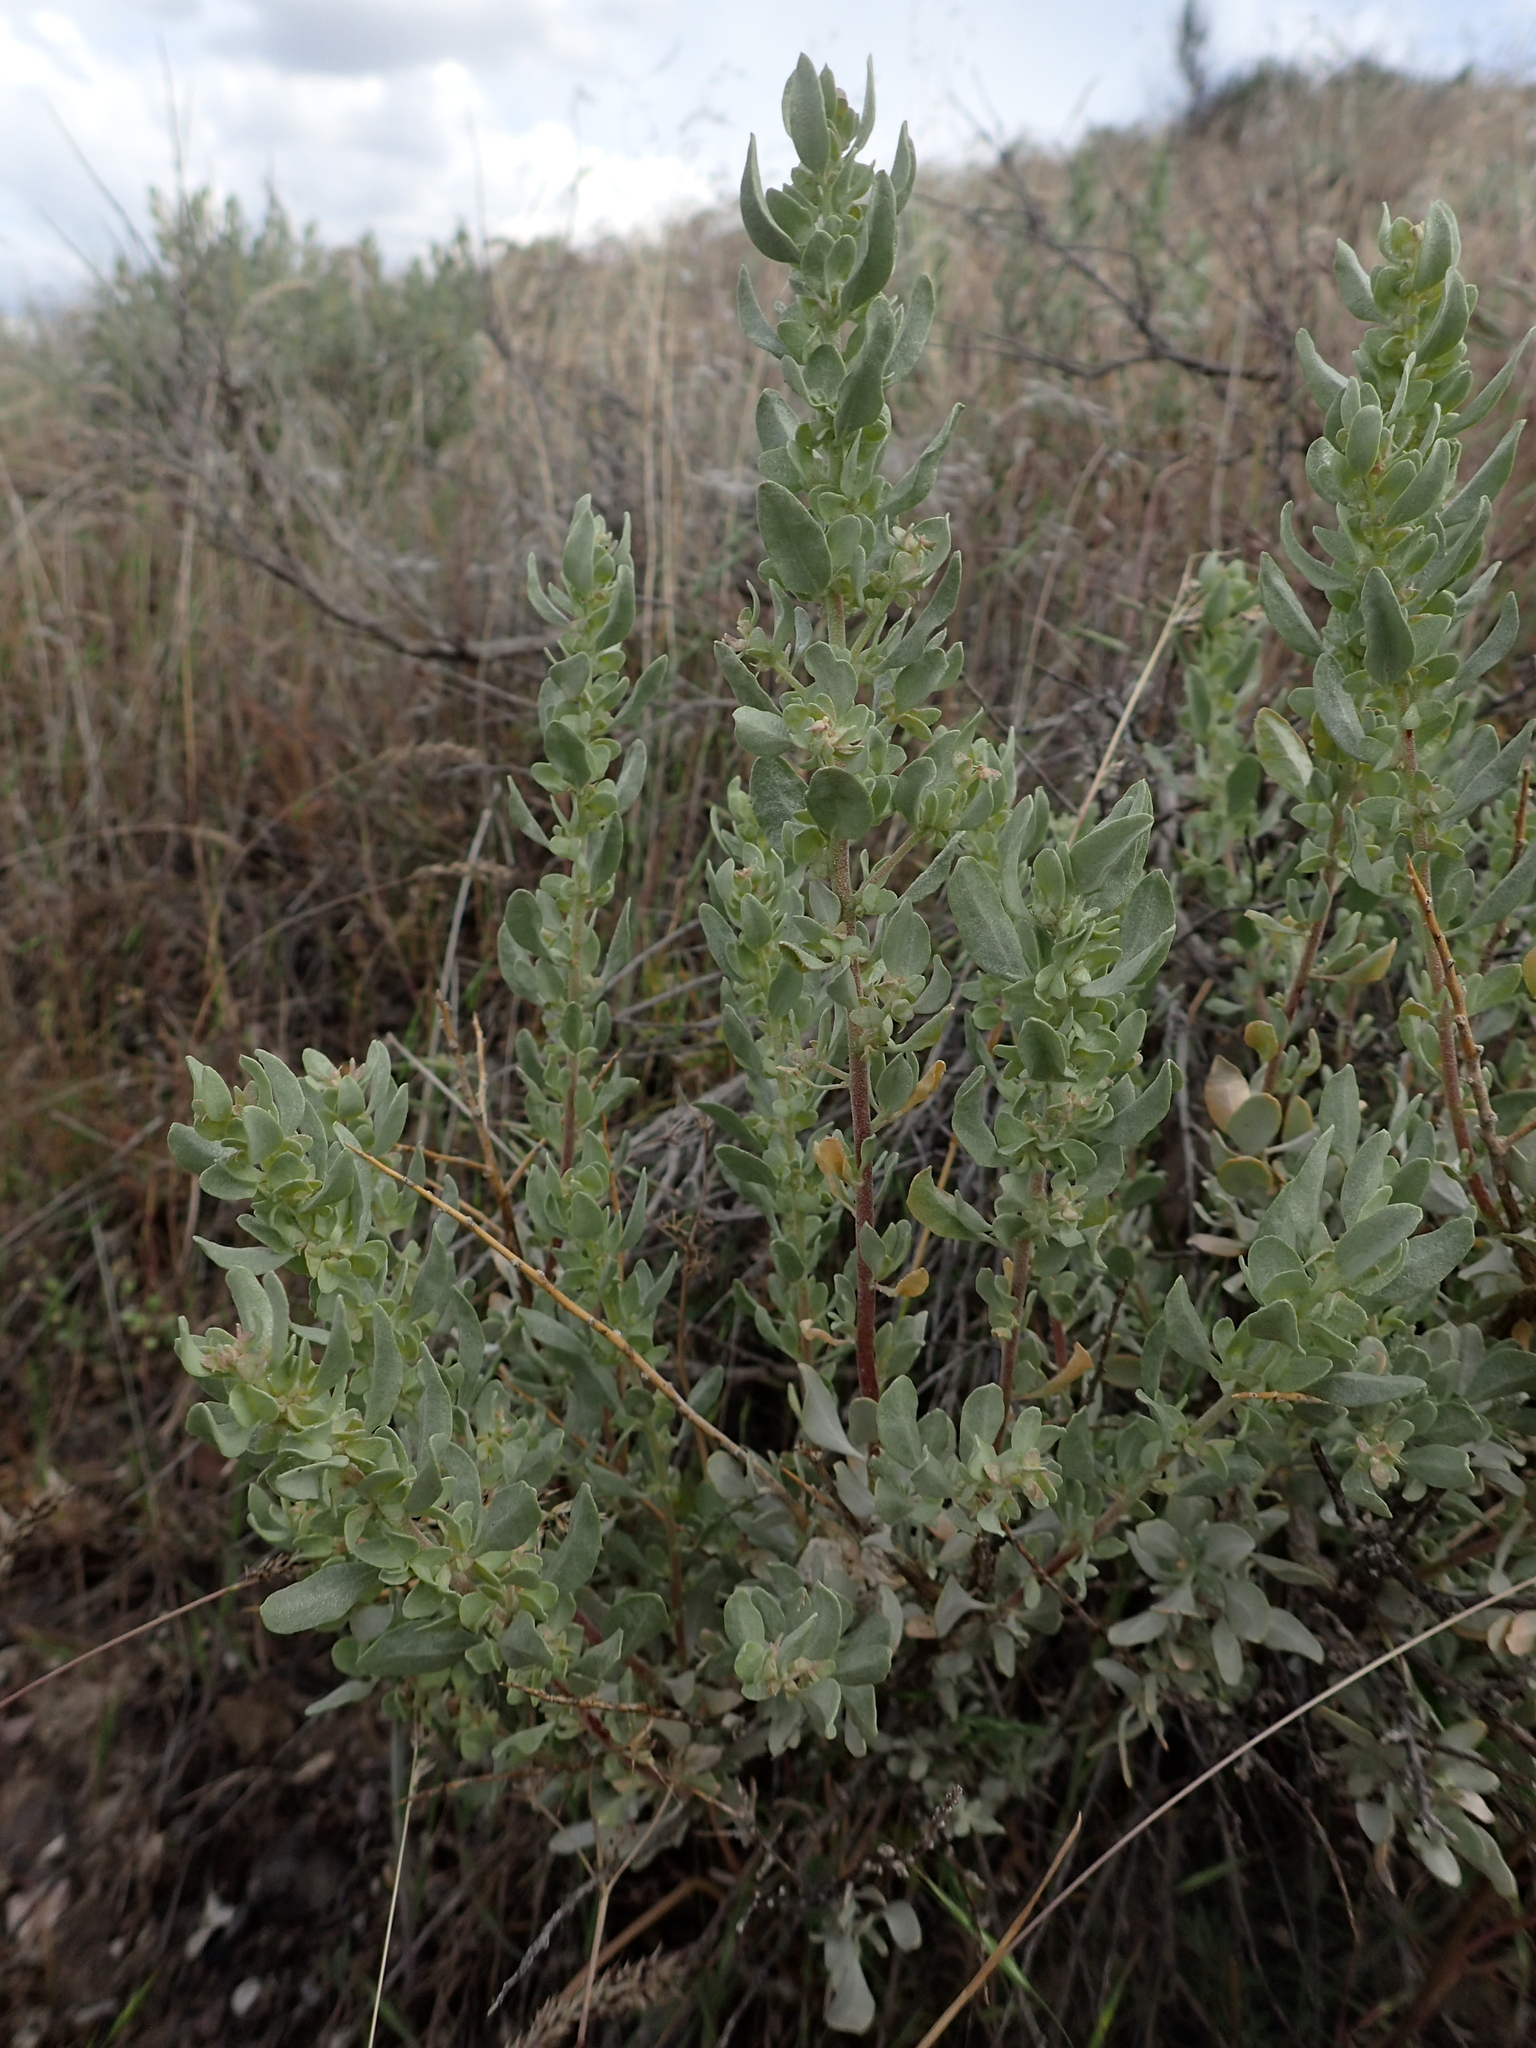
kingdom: Plantae
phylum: Tracheophyta
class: Magnoliopsida
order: Caryophyllales
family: Amaranthaceae
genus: Atriplex
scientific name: Atriplex confertifolia
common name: Shadscale
